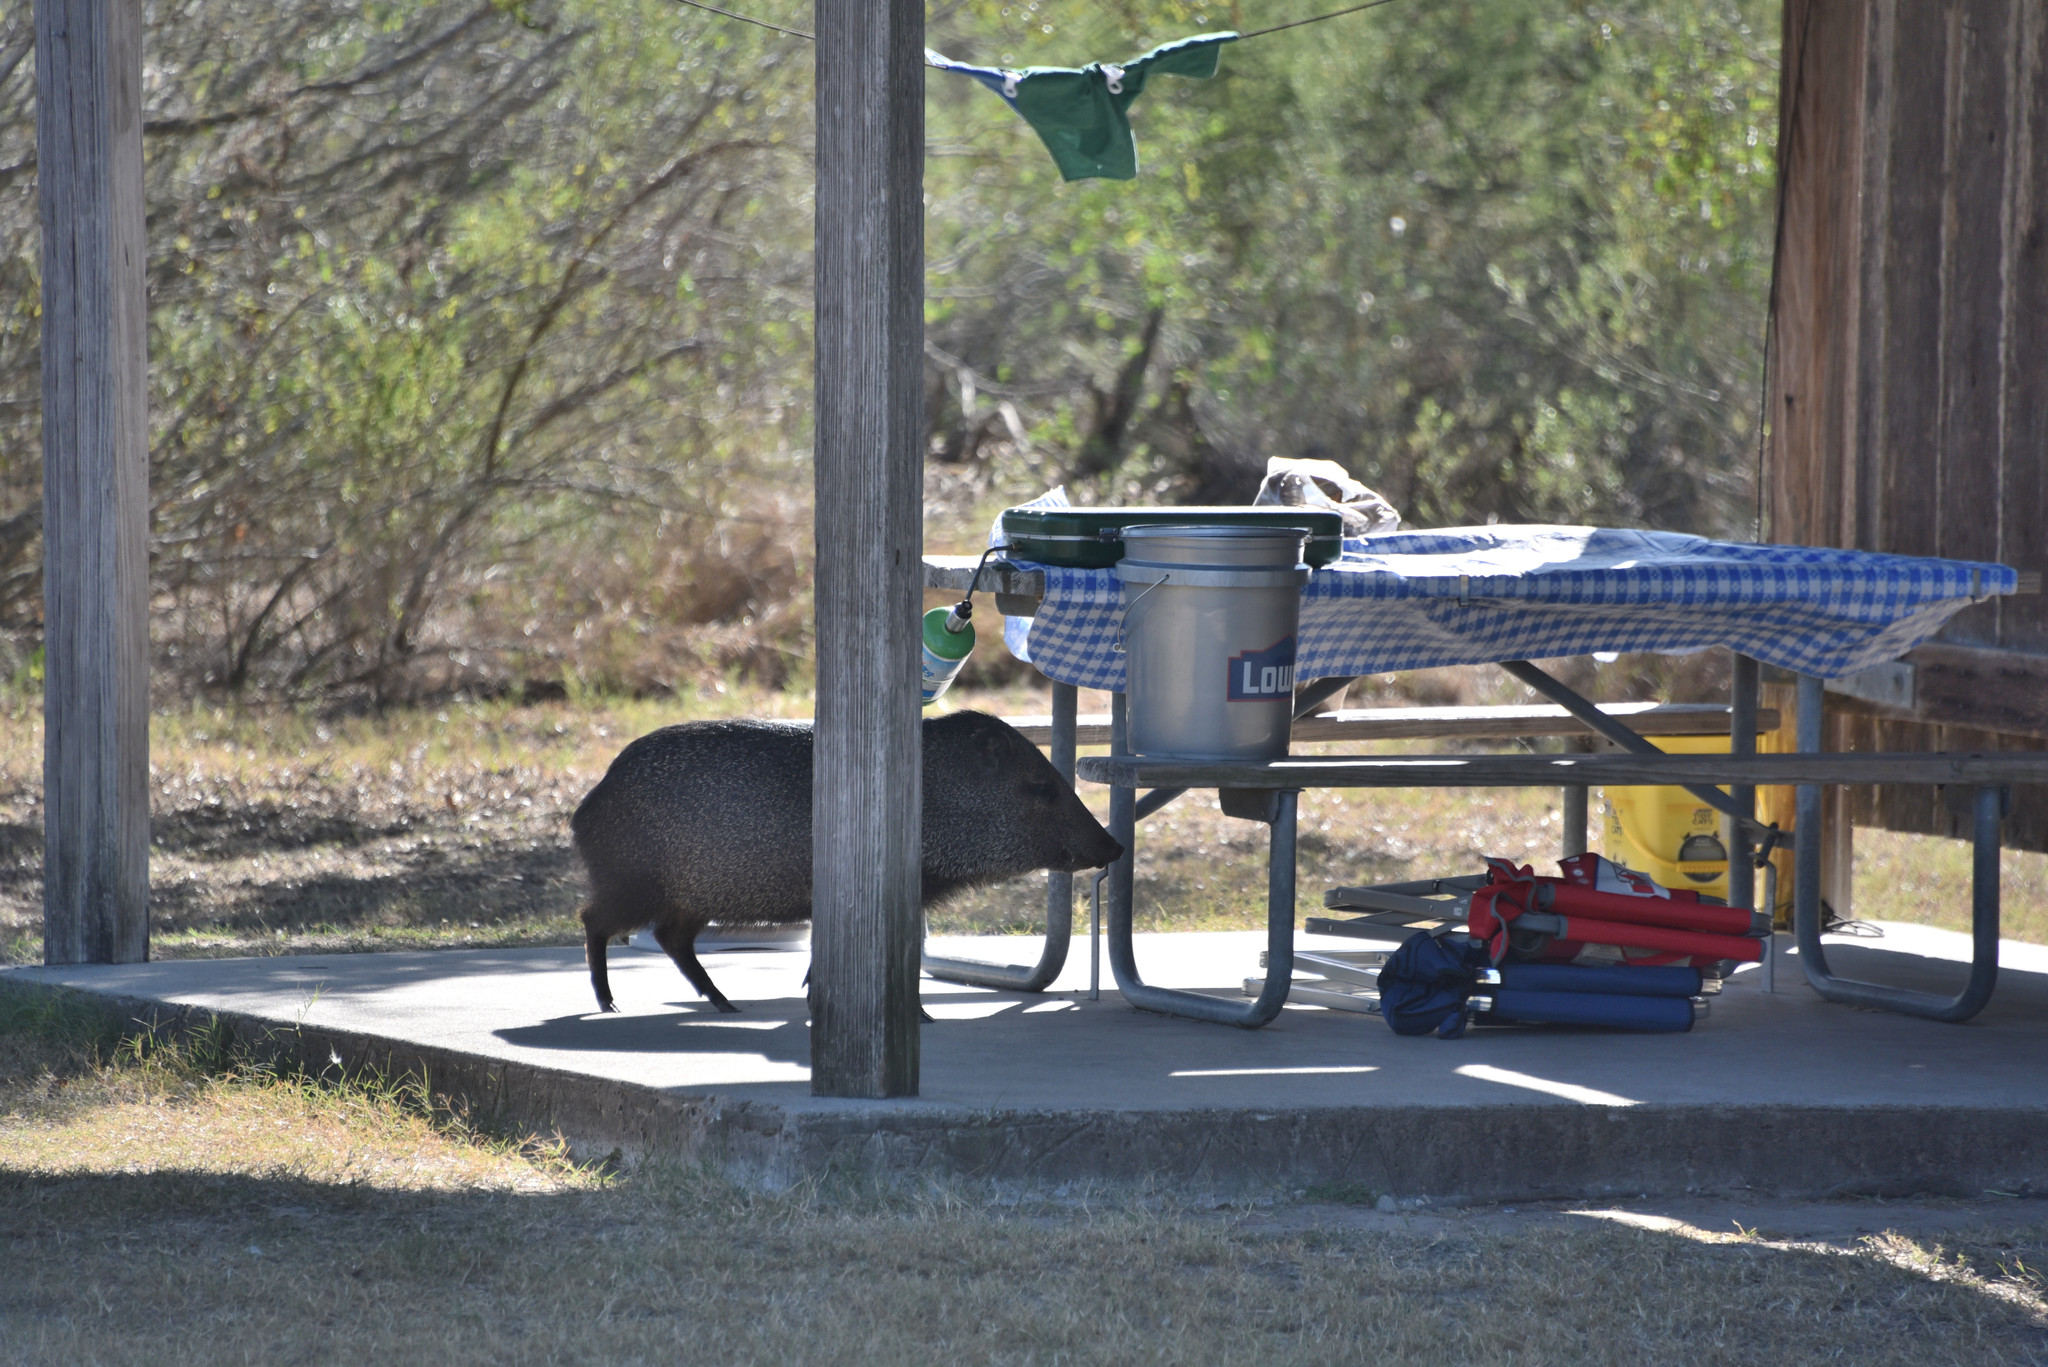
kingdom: Animalia
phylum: Chordata
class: Mammalia
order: Artiodactyla
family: Tayassuidae
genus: Pecari
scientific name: Pecari tajacu
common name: Collared peccary
